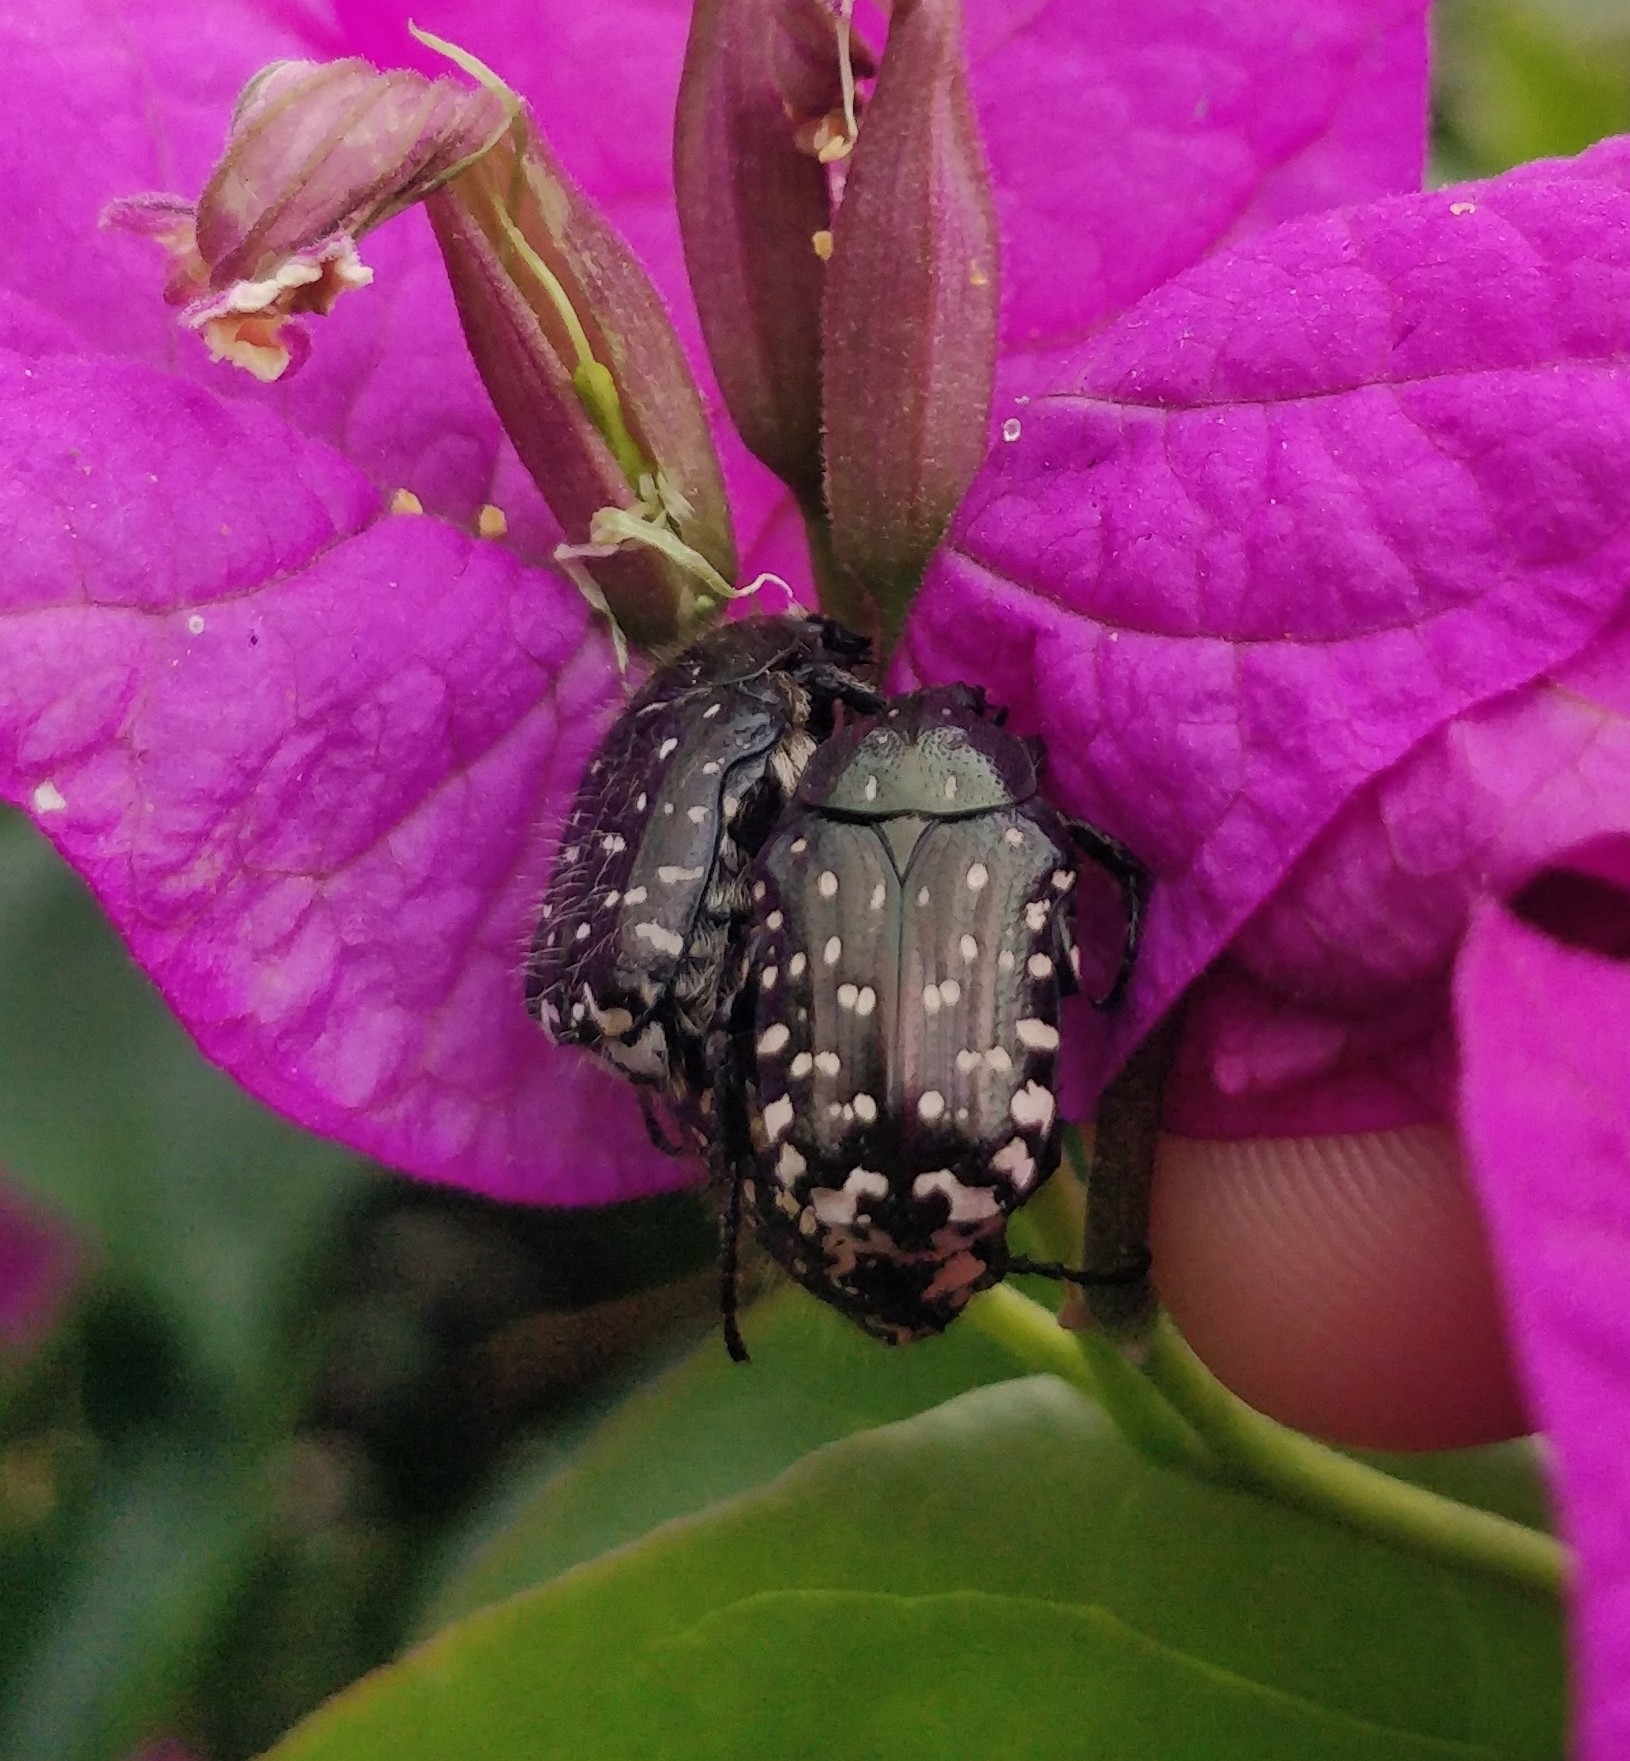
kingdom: Animalia
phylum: Arthropoda
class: Insecta
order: Coleoptera
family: Scarabaeidae
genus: Oxythyrea
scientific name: Oxythyrea funesta
